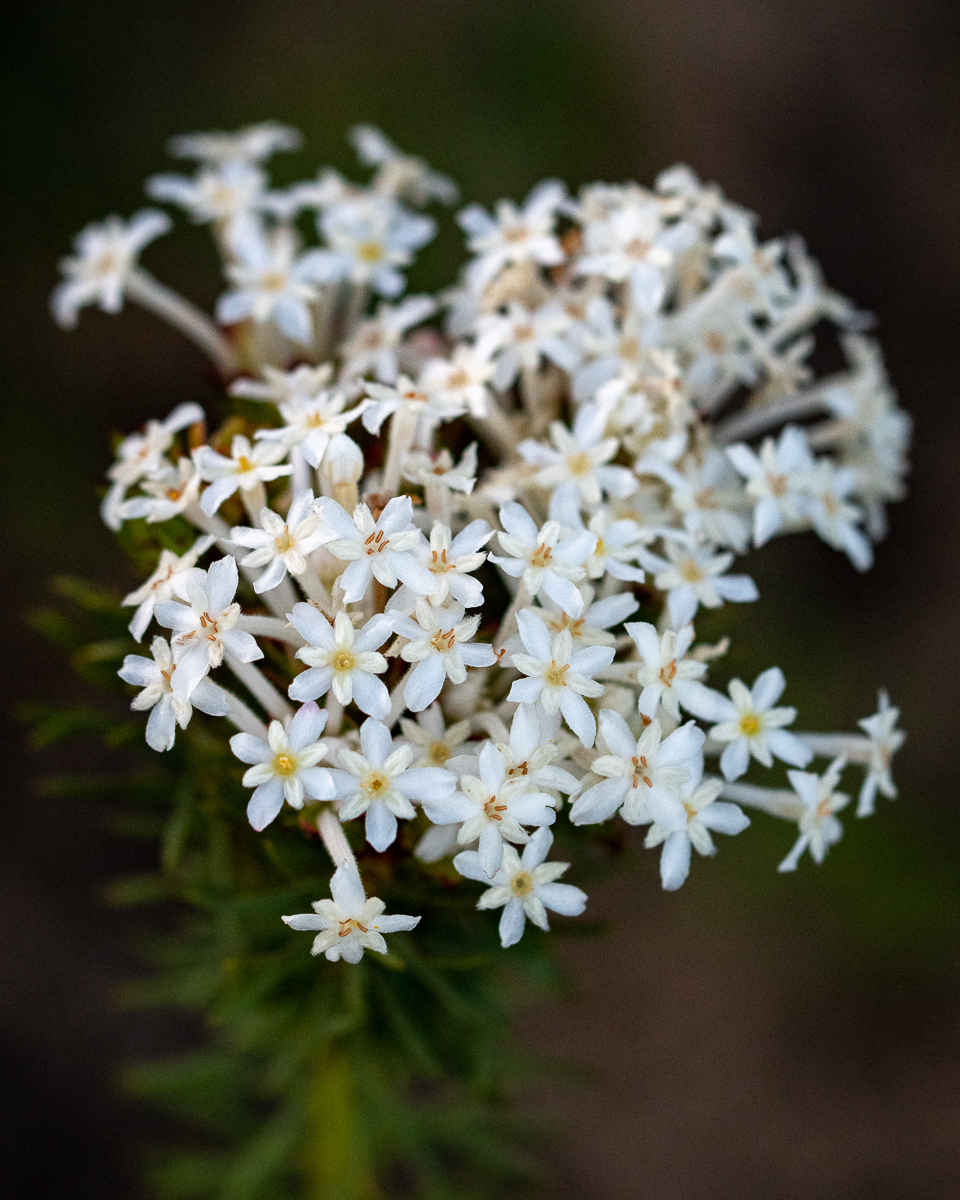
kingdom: Plantae
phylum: Tracheophyta
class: Magnoliopsida
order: Malvales
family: Thymelaeaceae
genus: Gnidia
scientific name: Gnidia pinifolia
